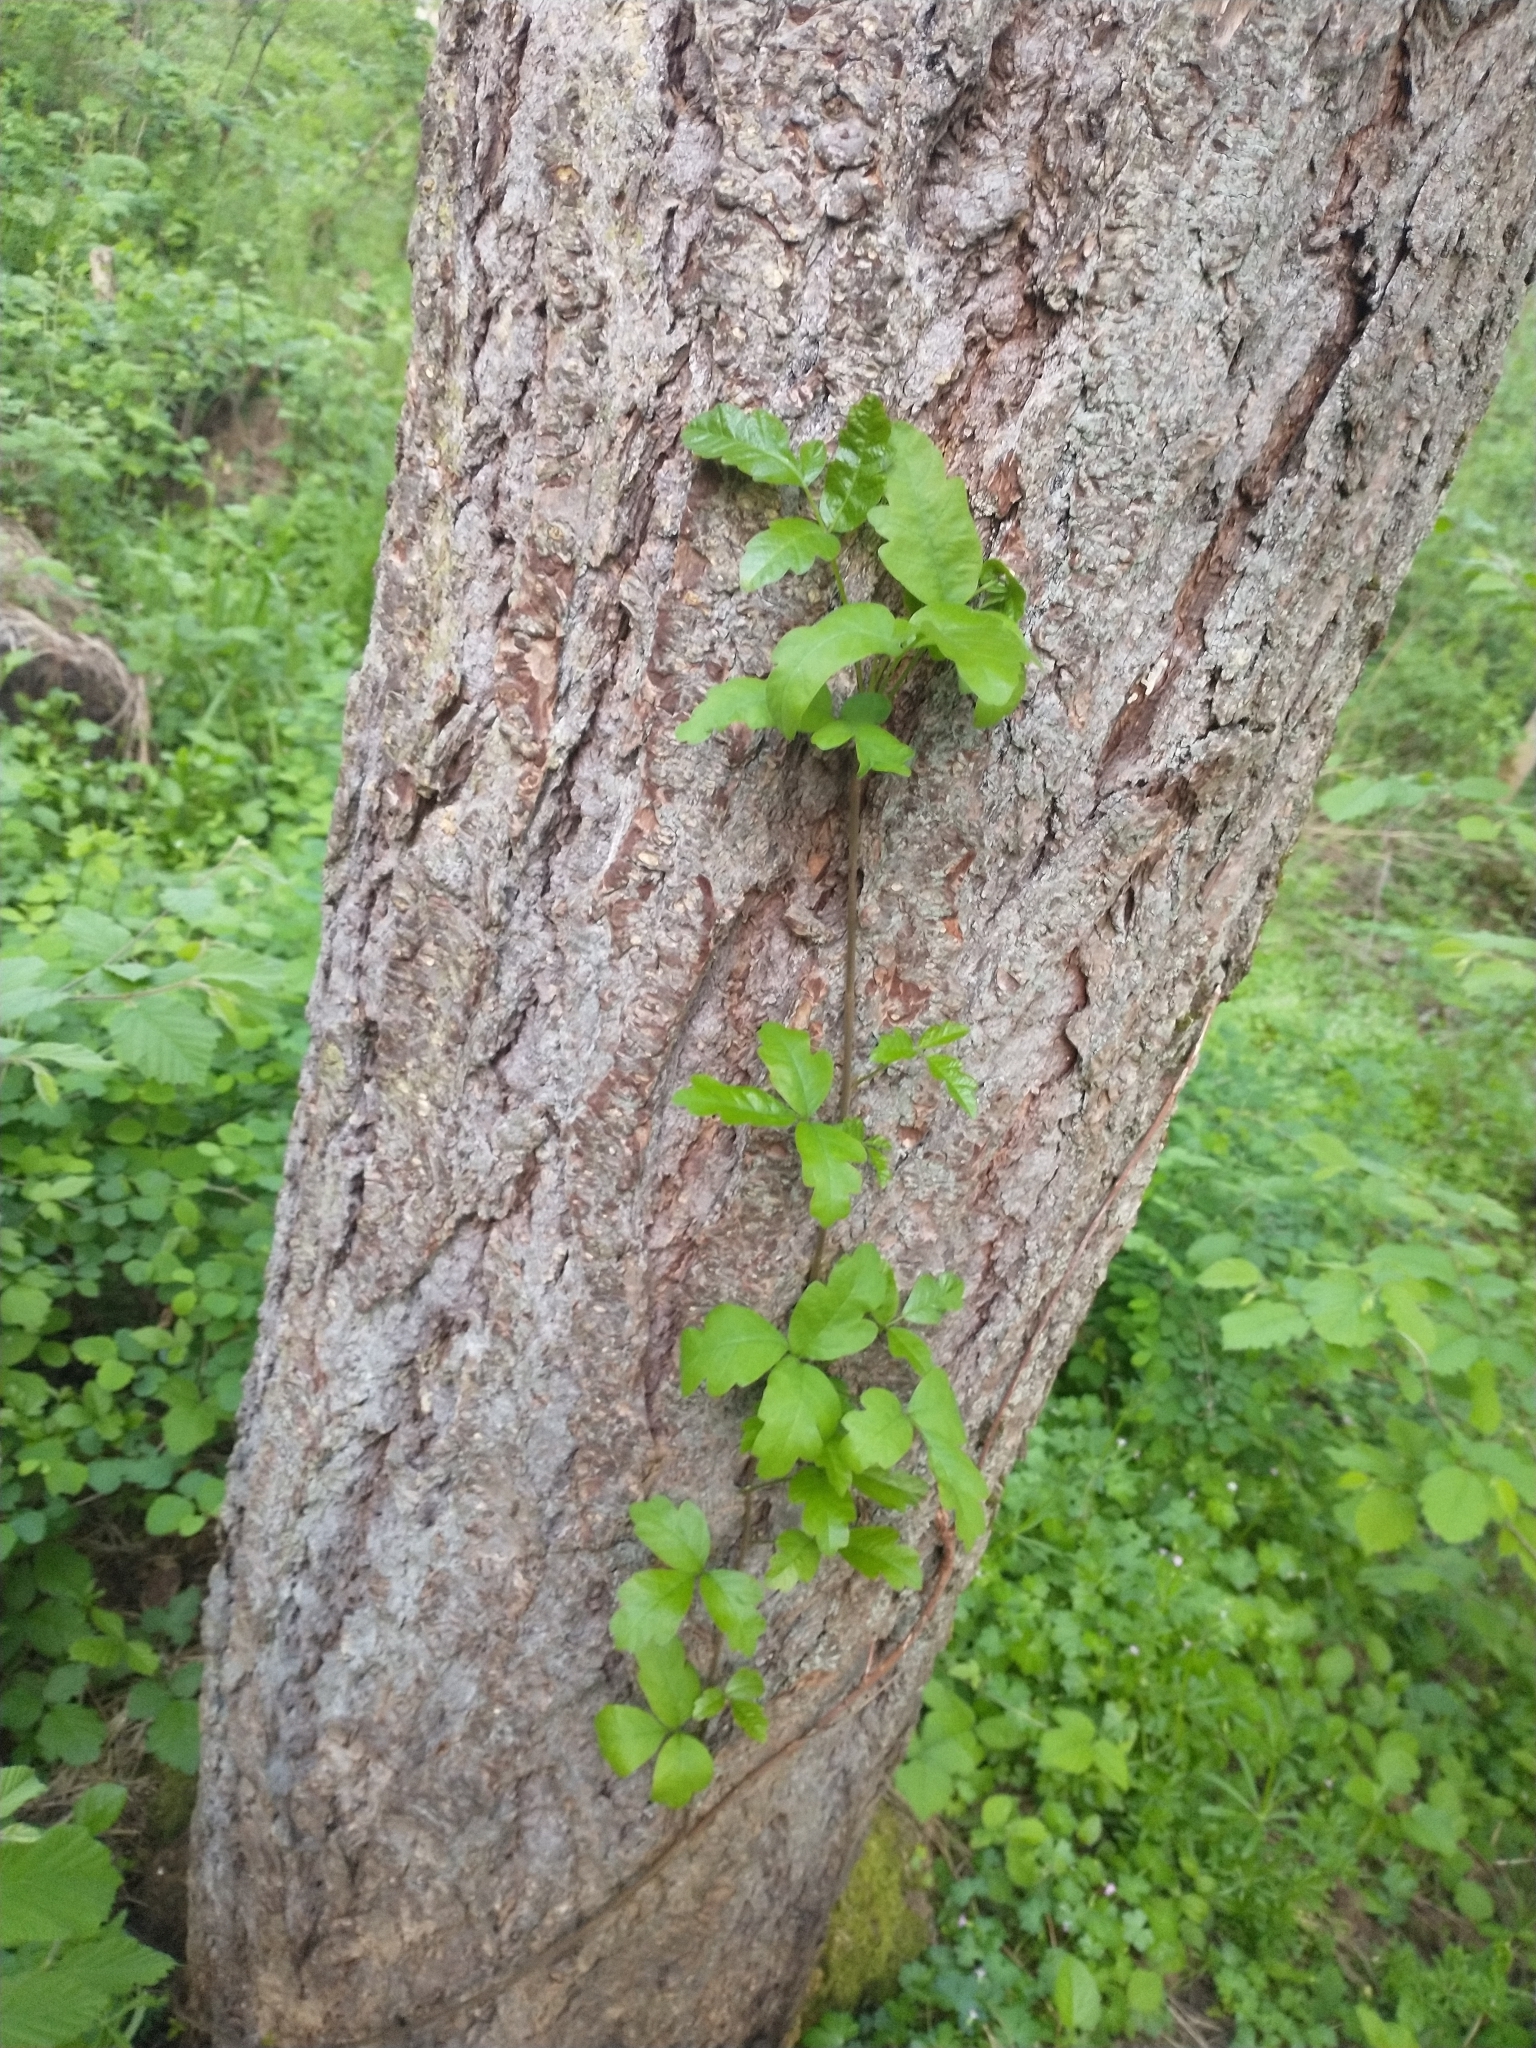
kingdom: Plantae
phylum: Tracheophyta
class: Magnoliopsida
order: Sapindales
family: Anacardiaceae
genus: Toxicodendron
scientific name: Toxicodendron diversilobum
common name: Pacific poison-oak
